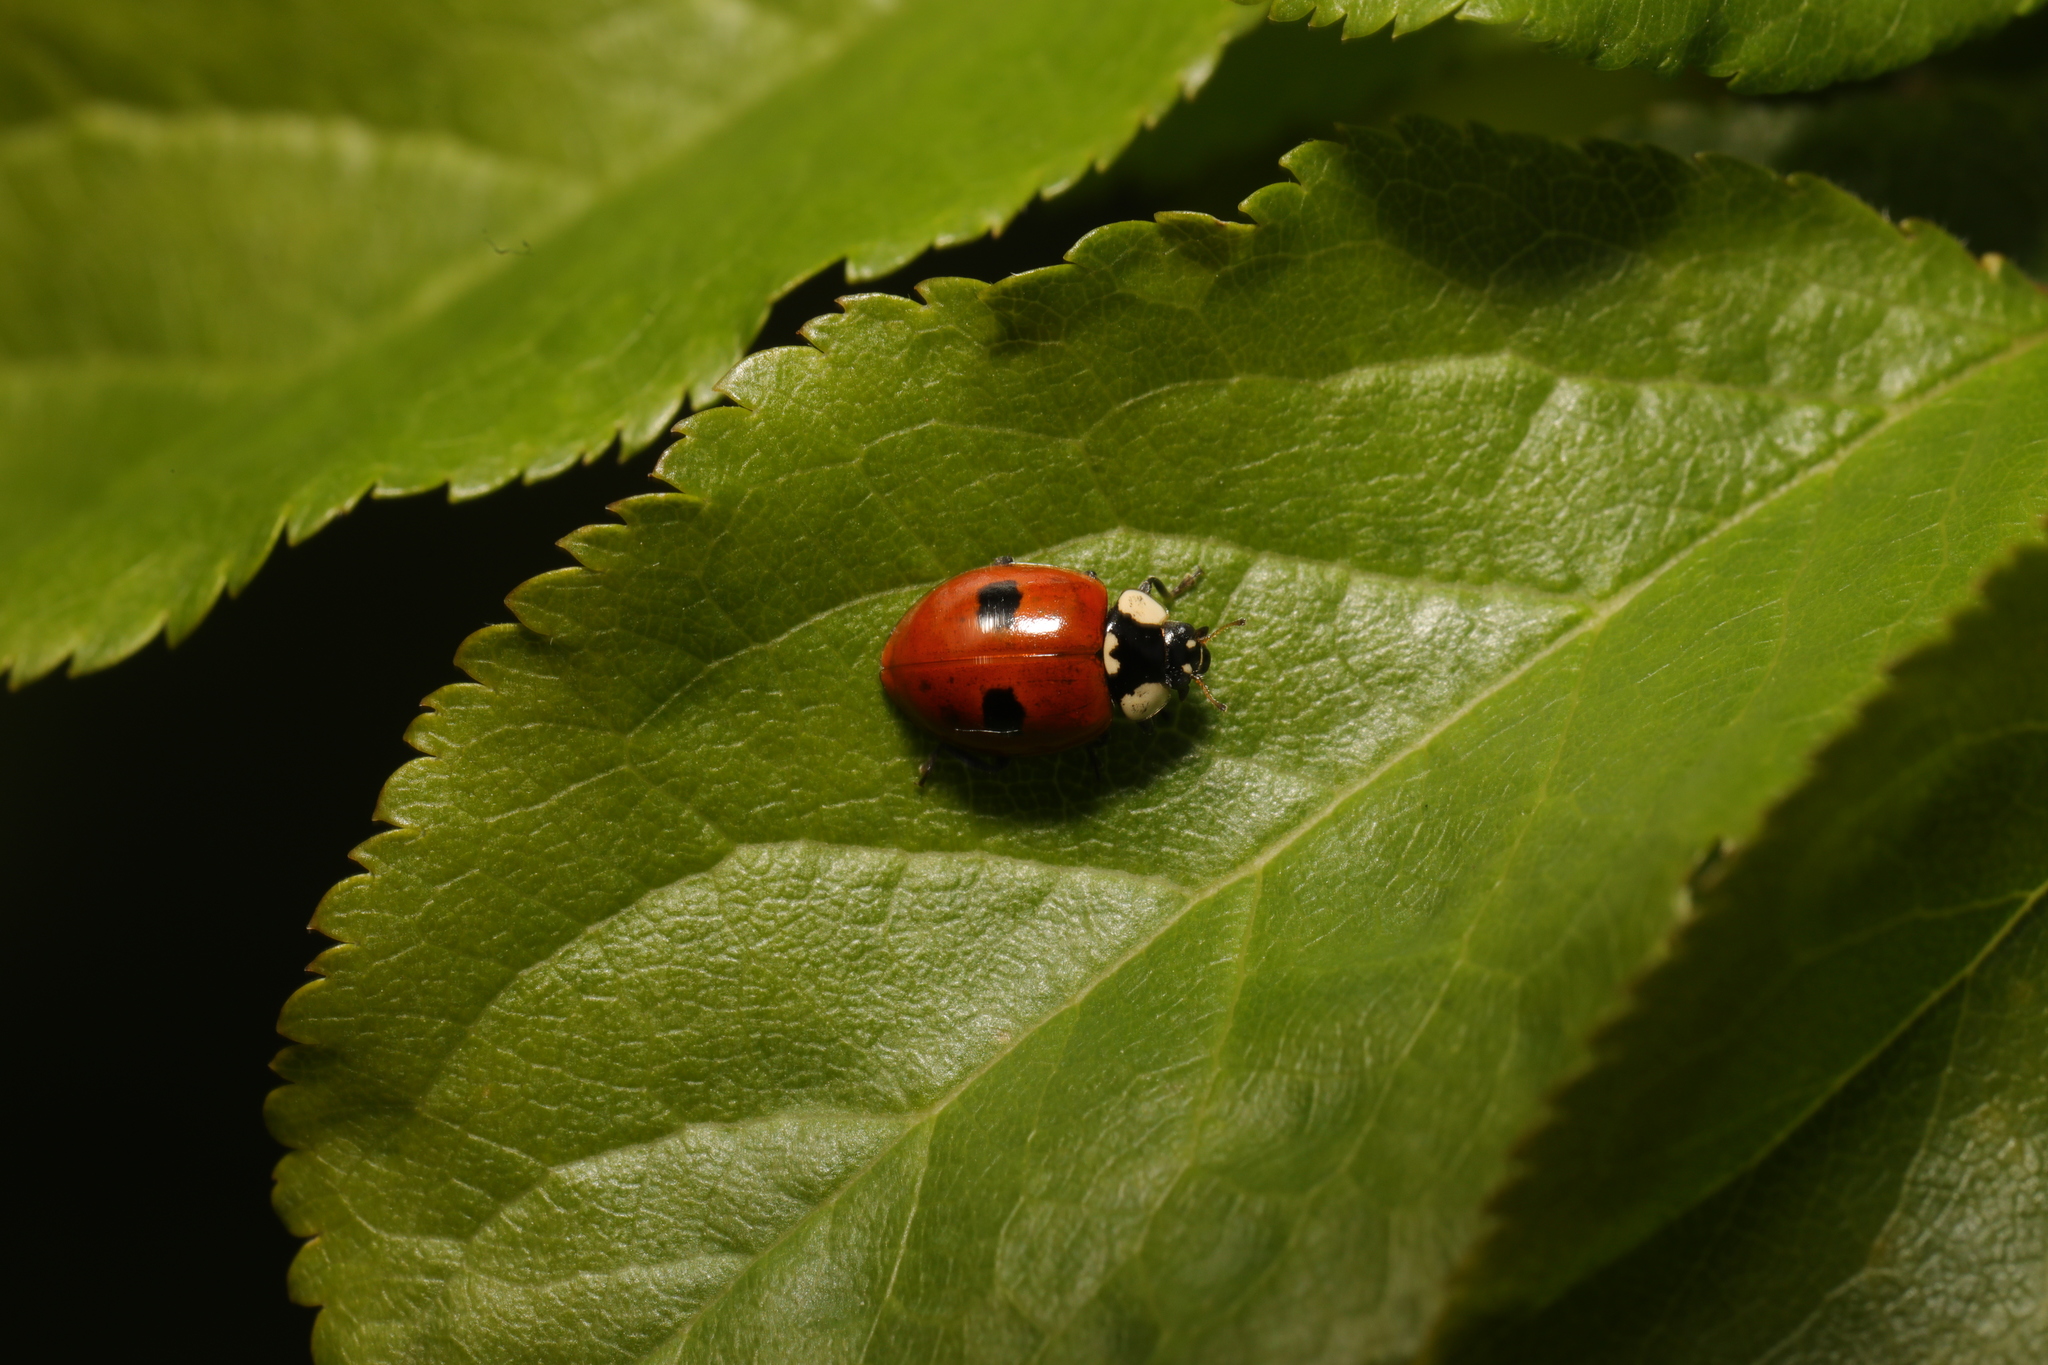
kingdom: Animalia
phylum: Arthropoda
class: Insecta
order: Coleoptera
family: Coccinellidae
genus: Adalia
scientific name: Adalia bipunctata
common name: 2-spot ladybird
